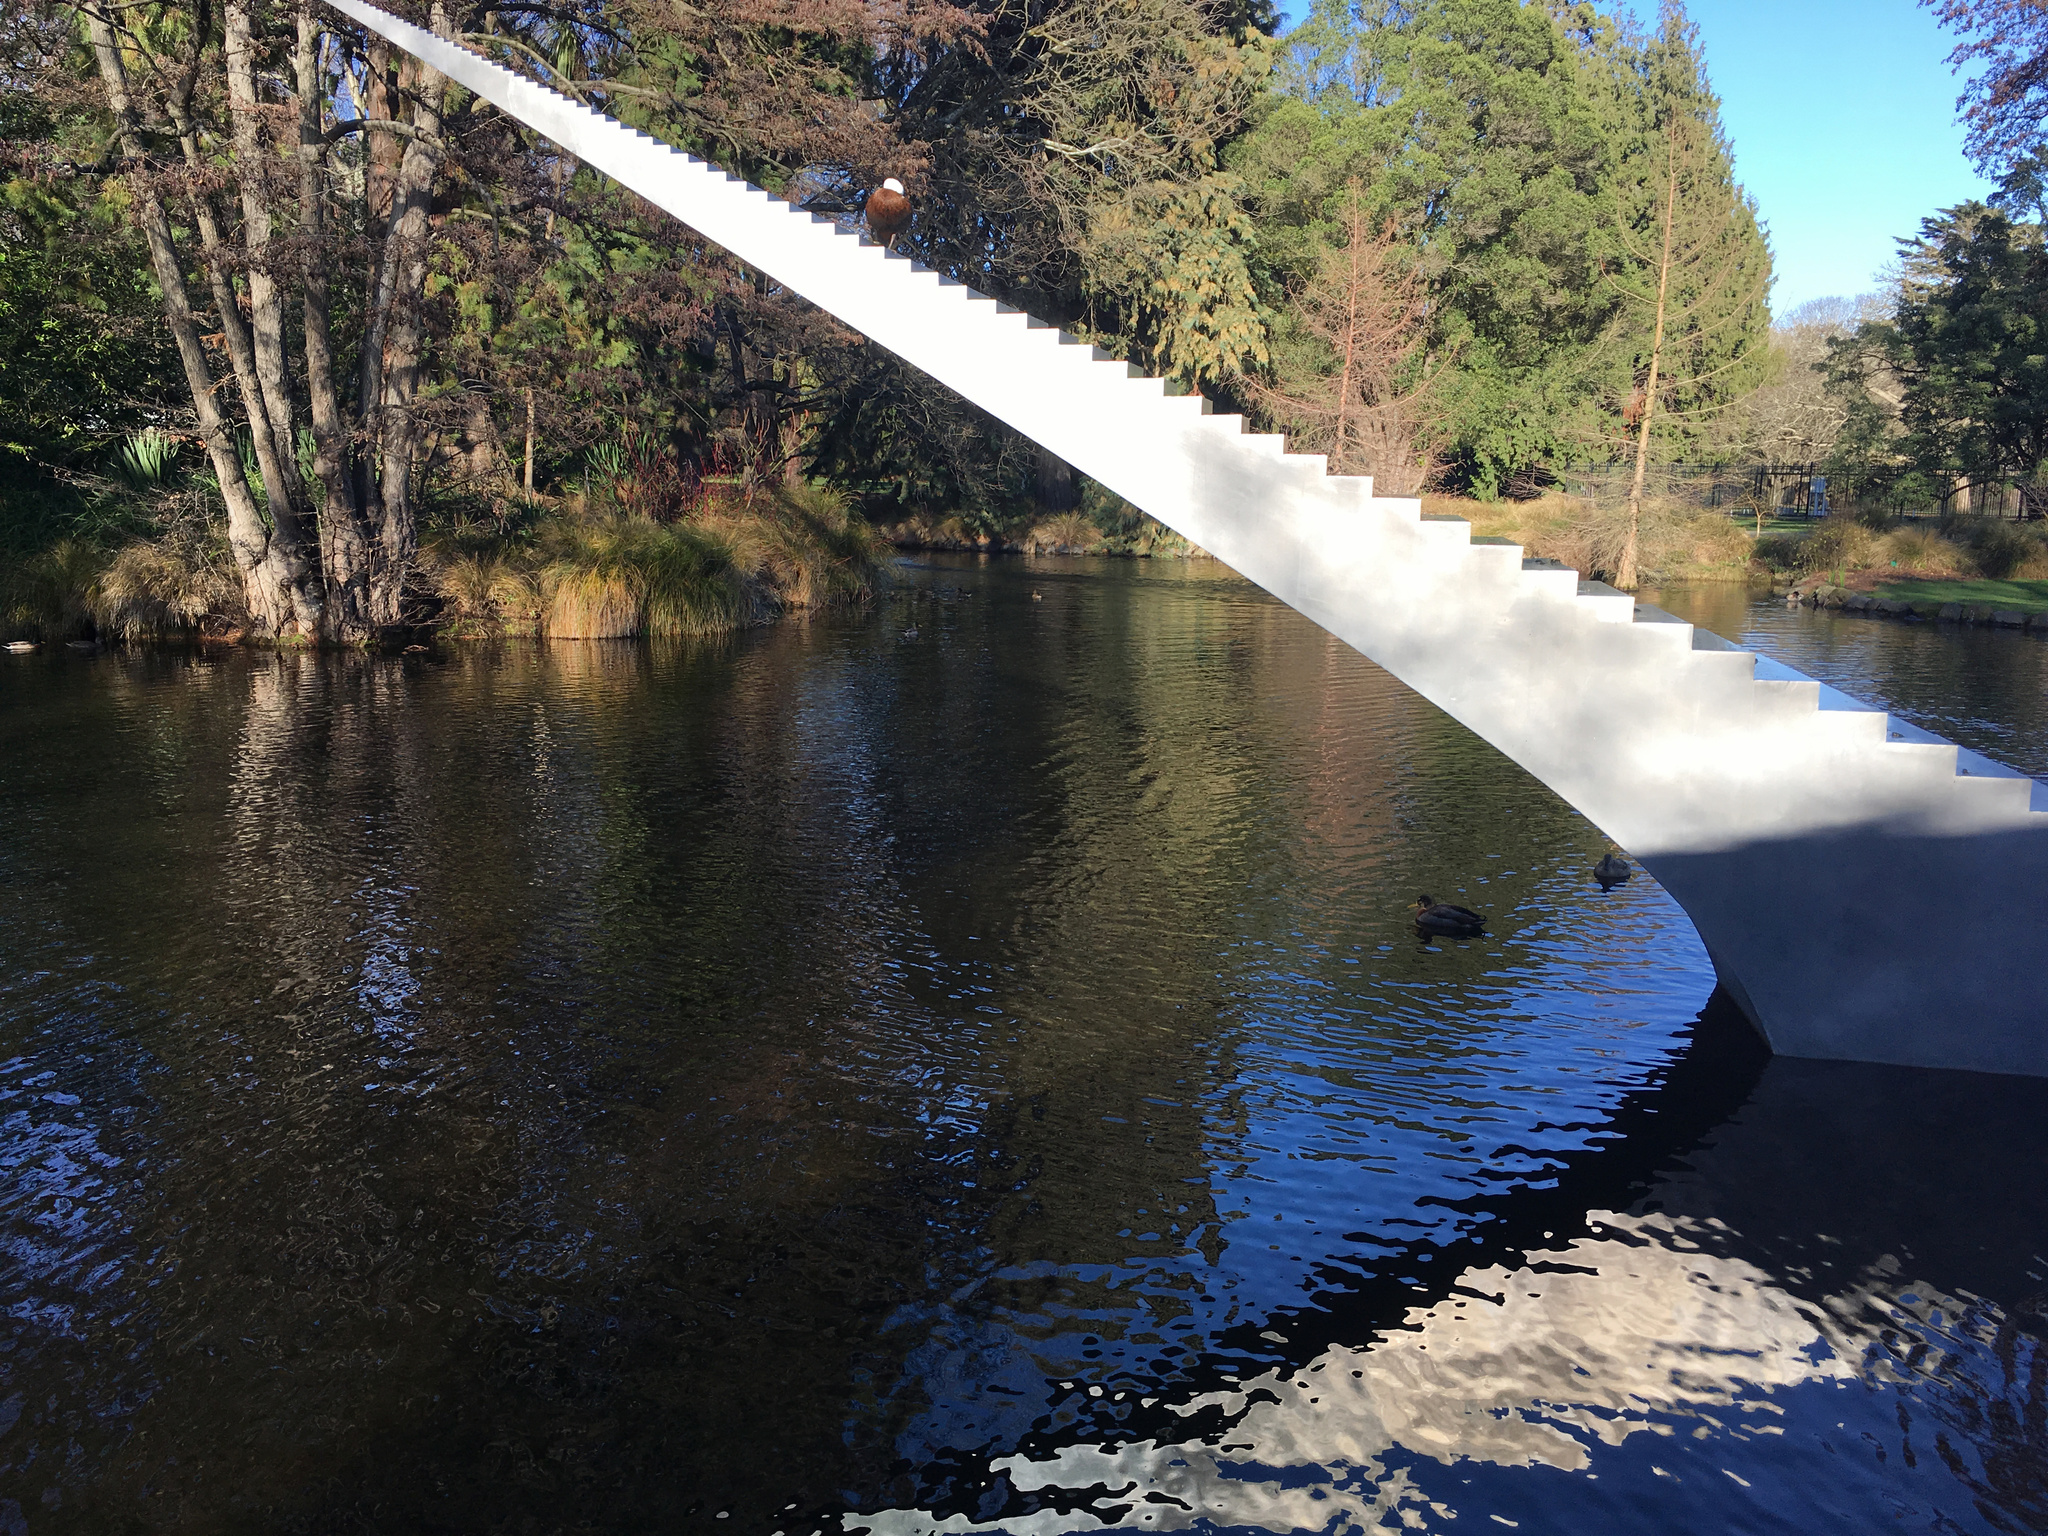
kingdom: Animalia
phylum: Chordata
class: Aves
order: Anseriformes
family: Anatidae
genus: Tadorna
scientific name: Tadorna variegata
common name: Paradise shelduck
